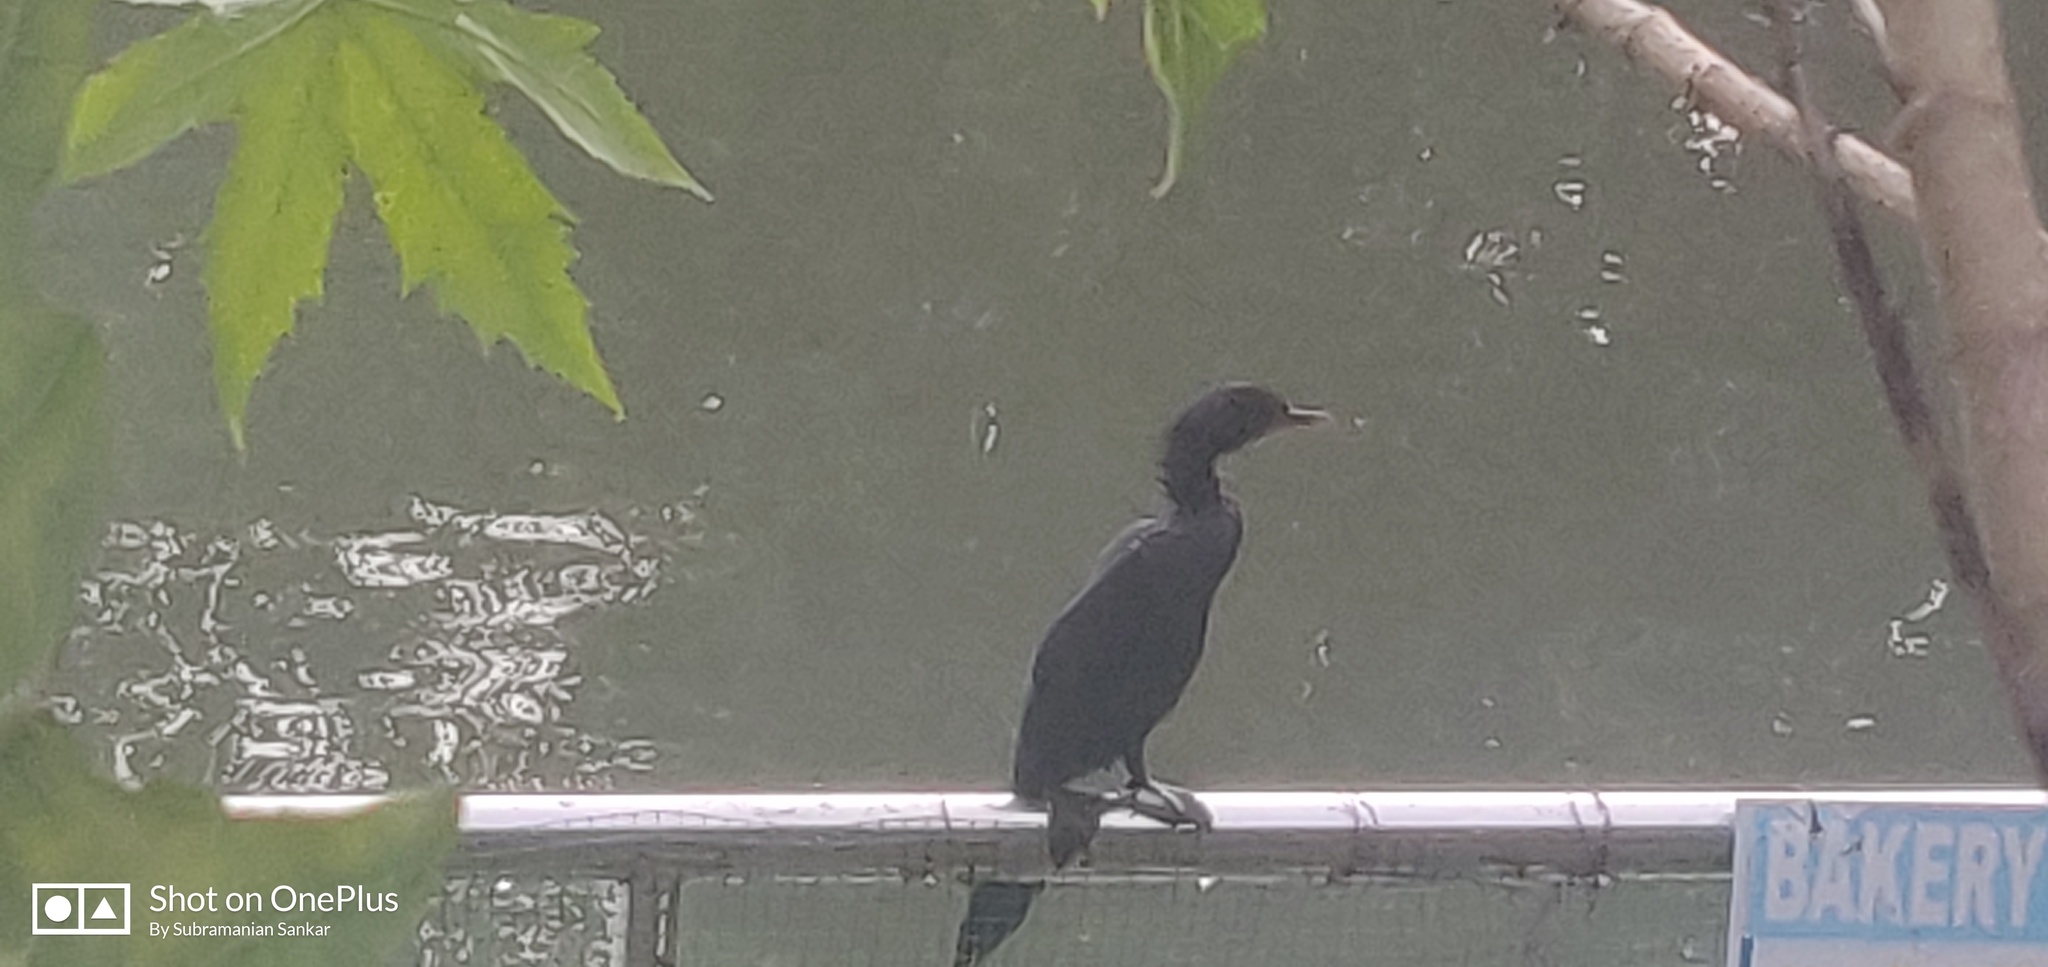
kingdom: Animalia
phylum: Chordata
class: Aves
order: Suliformes
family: Phalacrocoracidae
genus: Microcarbo
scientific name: Microcarbo niger
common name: Little cormorant
